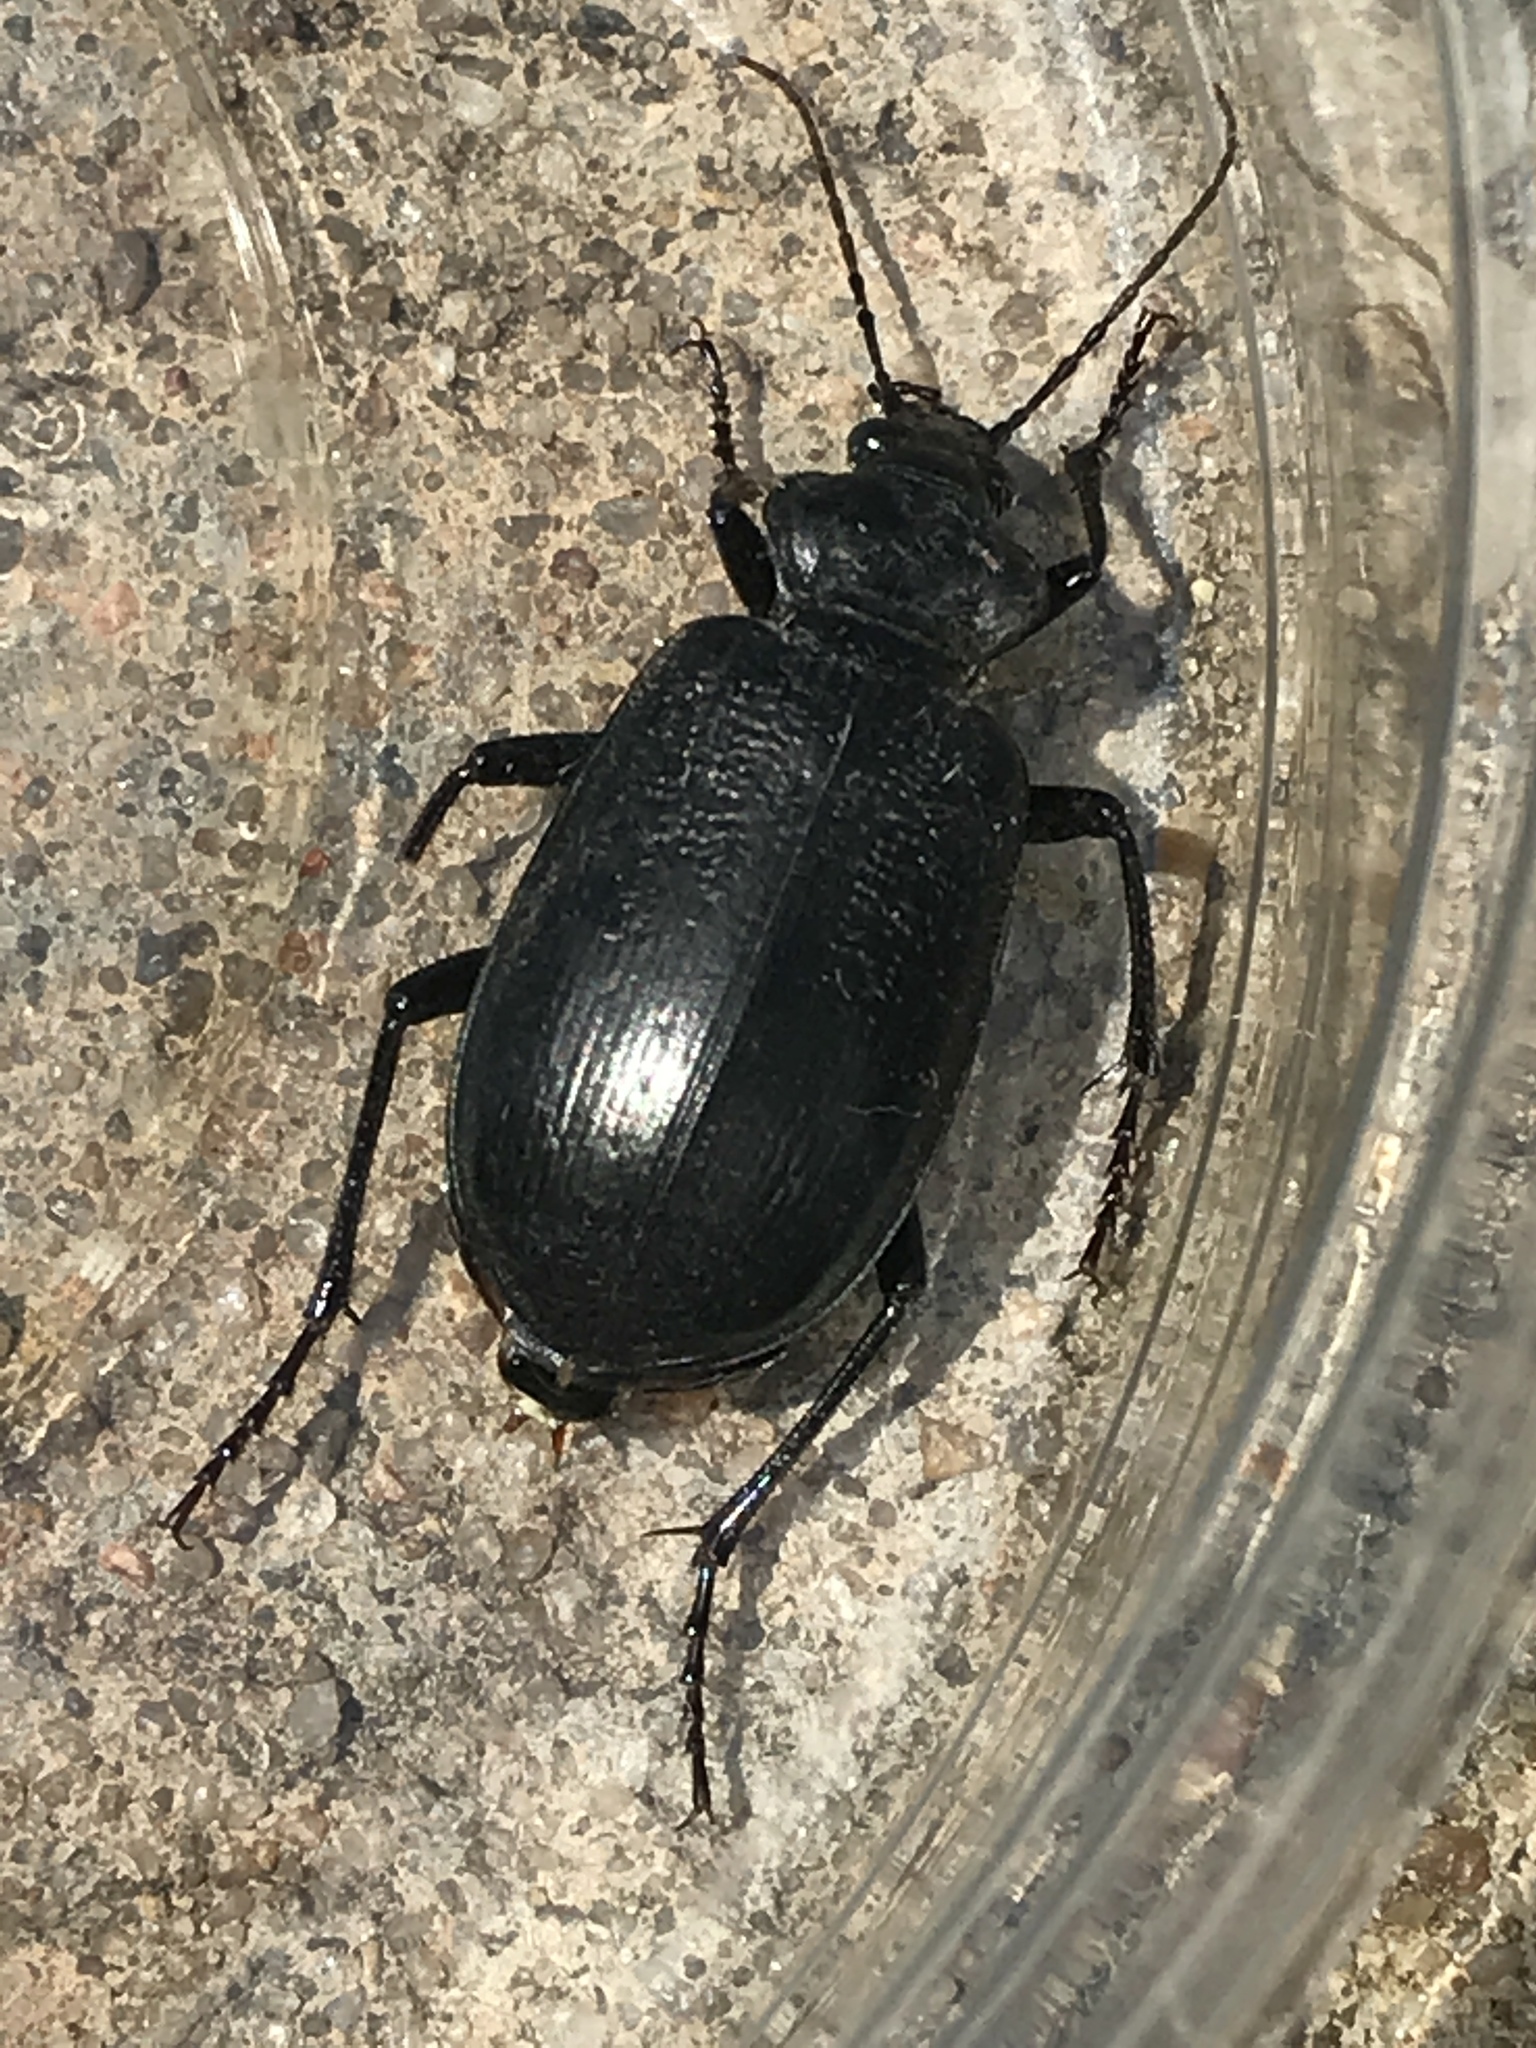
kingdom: Animalia
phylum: Arthropoda
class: Insecta
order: Coleoptera
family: Carabidae
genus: Calosoma
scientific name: Calosoma marginale
